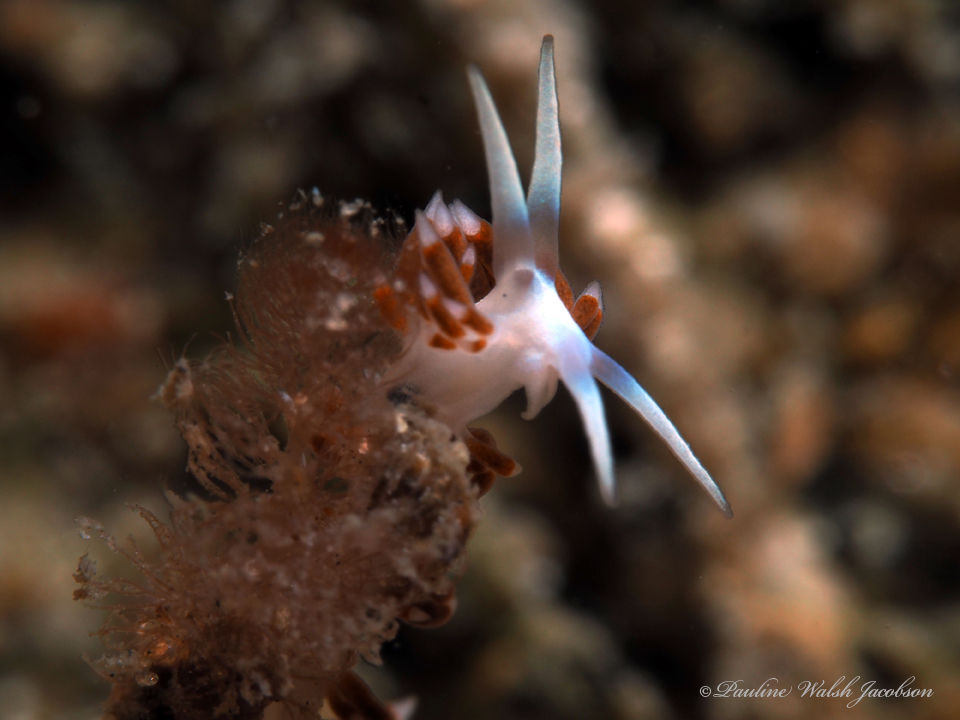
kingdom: Animalia
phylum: Mollusca
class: Gastropoda
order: Nudibranchia
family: Flabellinidae
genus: Flabellina
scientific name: Flabellina dushia
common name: Dushia flabellina
